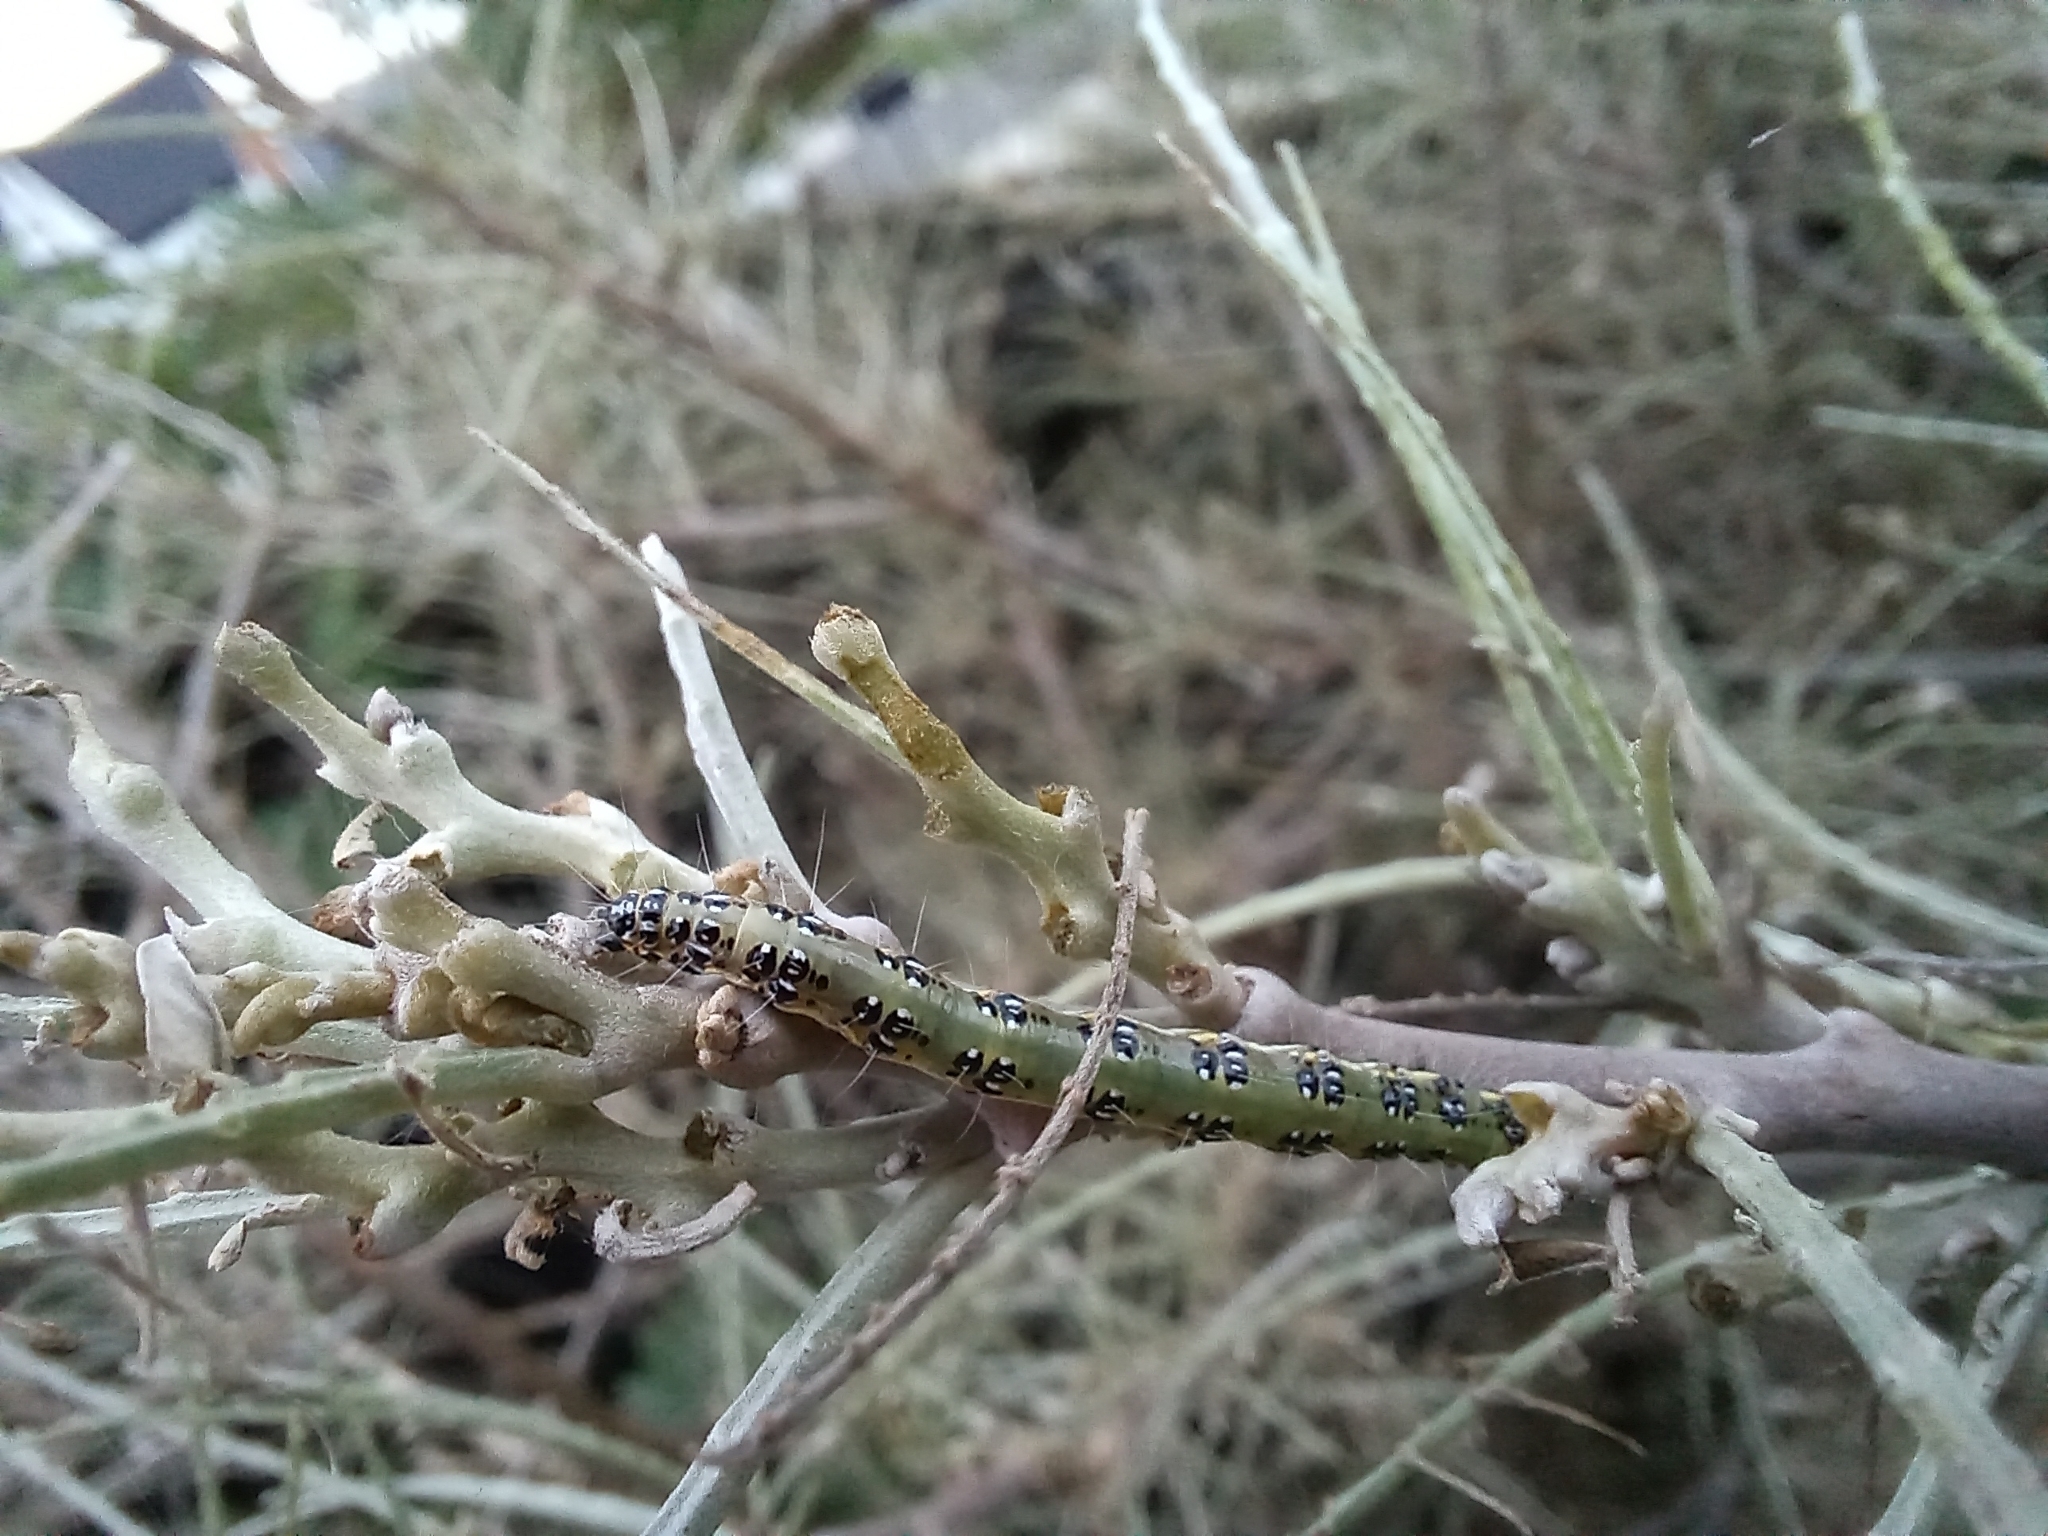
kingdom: Animalia
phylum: Arthropoda
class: Insecta
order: Lepidoptera
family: Crambidae
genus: Uresiphita
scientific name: Uresiphita
